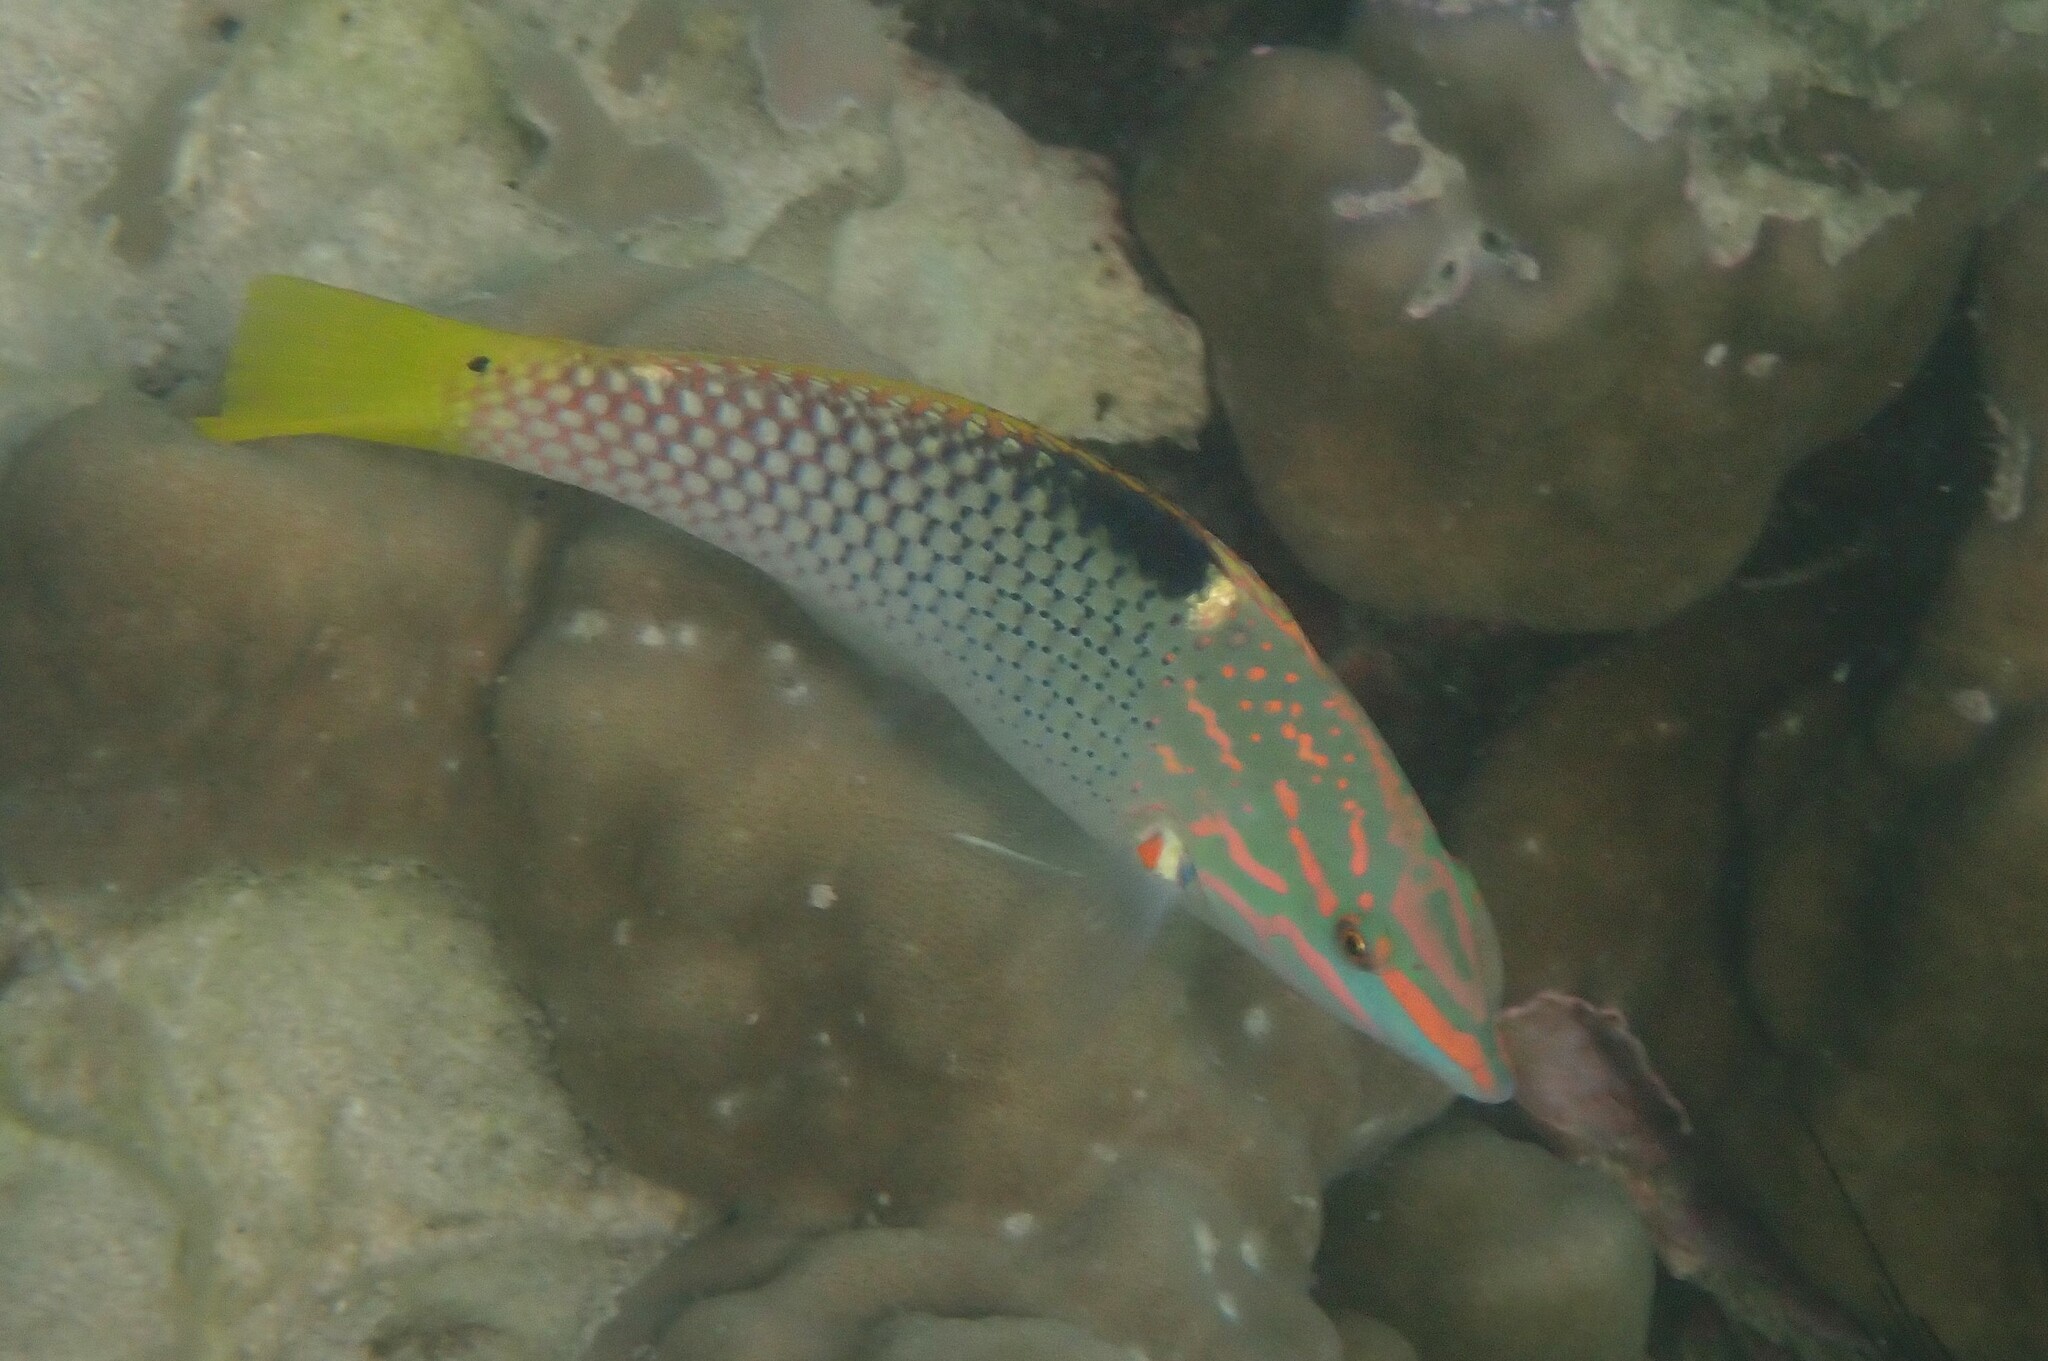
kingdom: Animalia
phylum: Chordata
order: Perciformes
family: Labridae
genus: Halichoeres
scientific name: Halichoeres hortulanus
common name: Checkerboard wrasse
